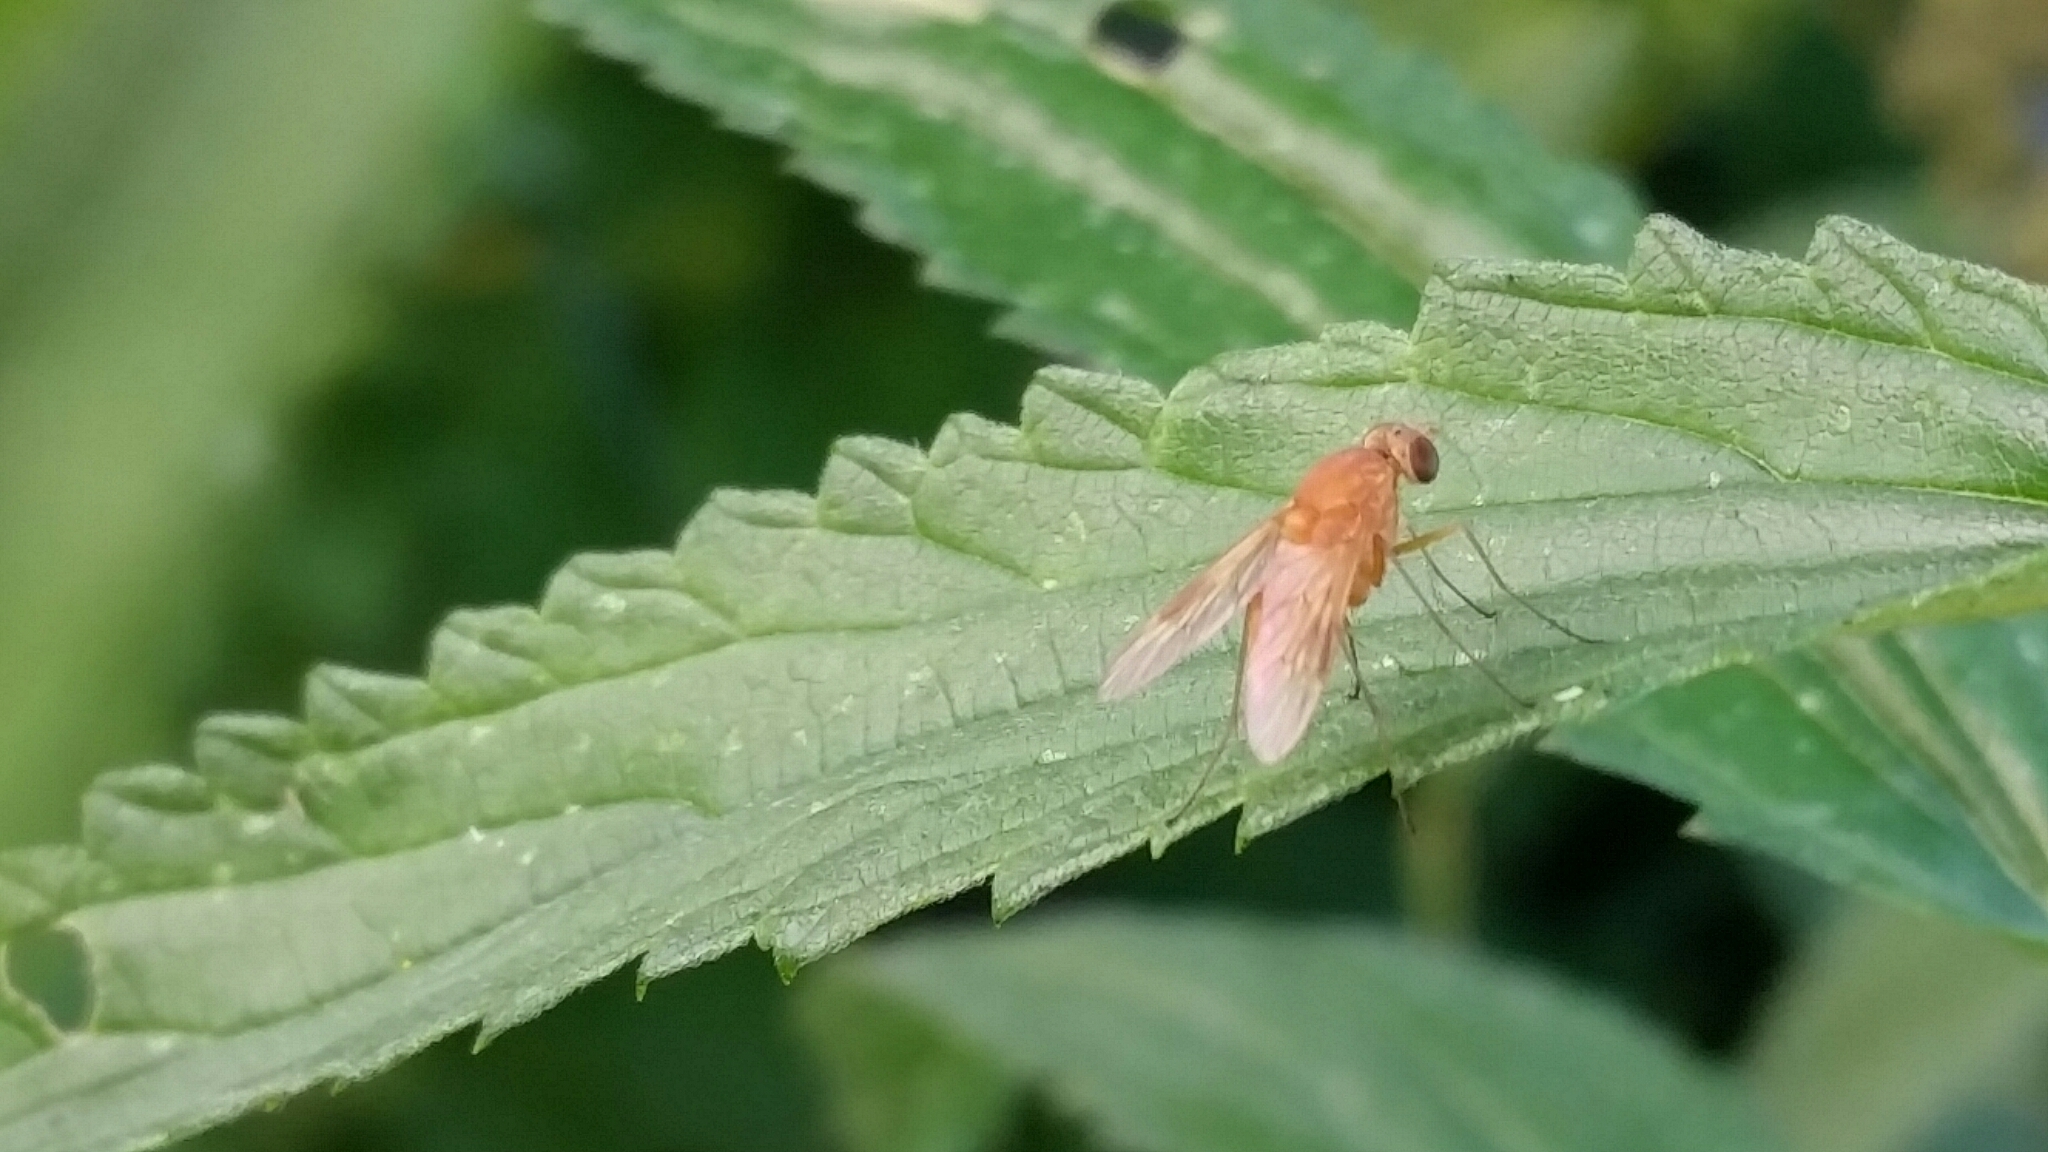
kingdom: Animalia
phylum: Arthropoda
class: Insecta
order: Diptera
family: Rhagionidae
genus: Chrysopilus
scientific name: Chrysopilus quadratus
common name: Quadrate snipe fly
